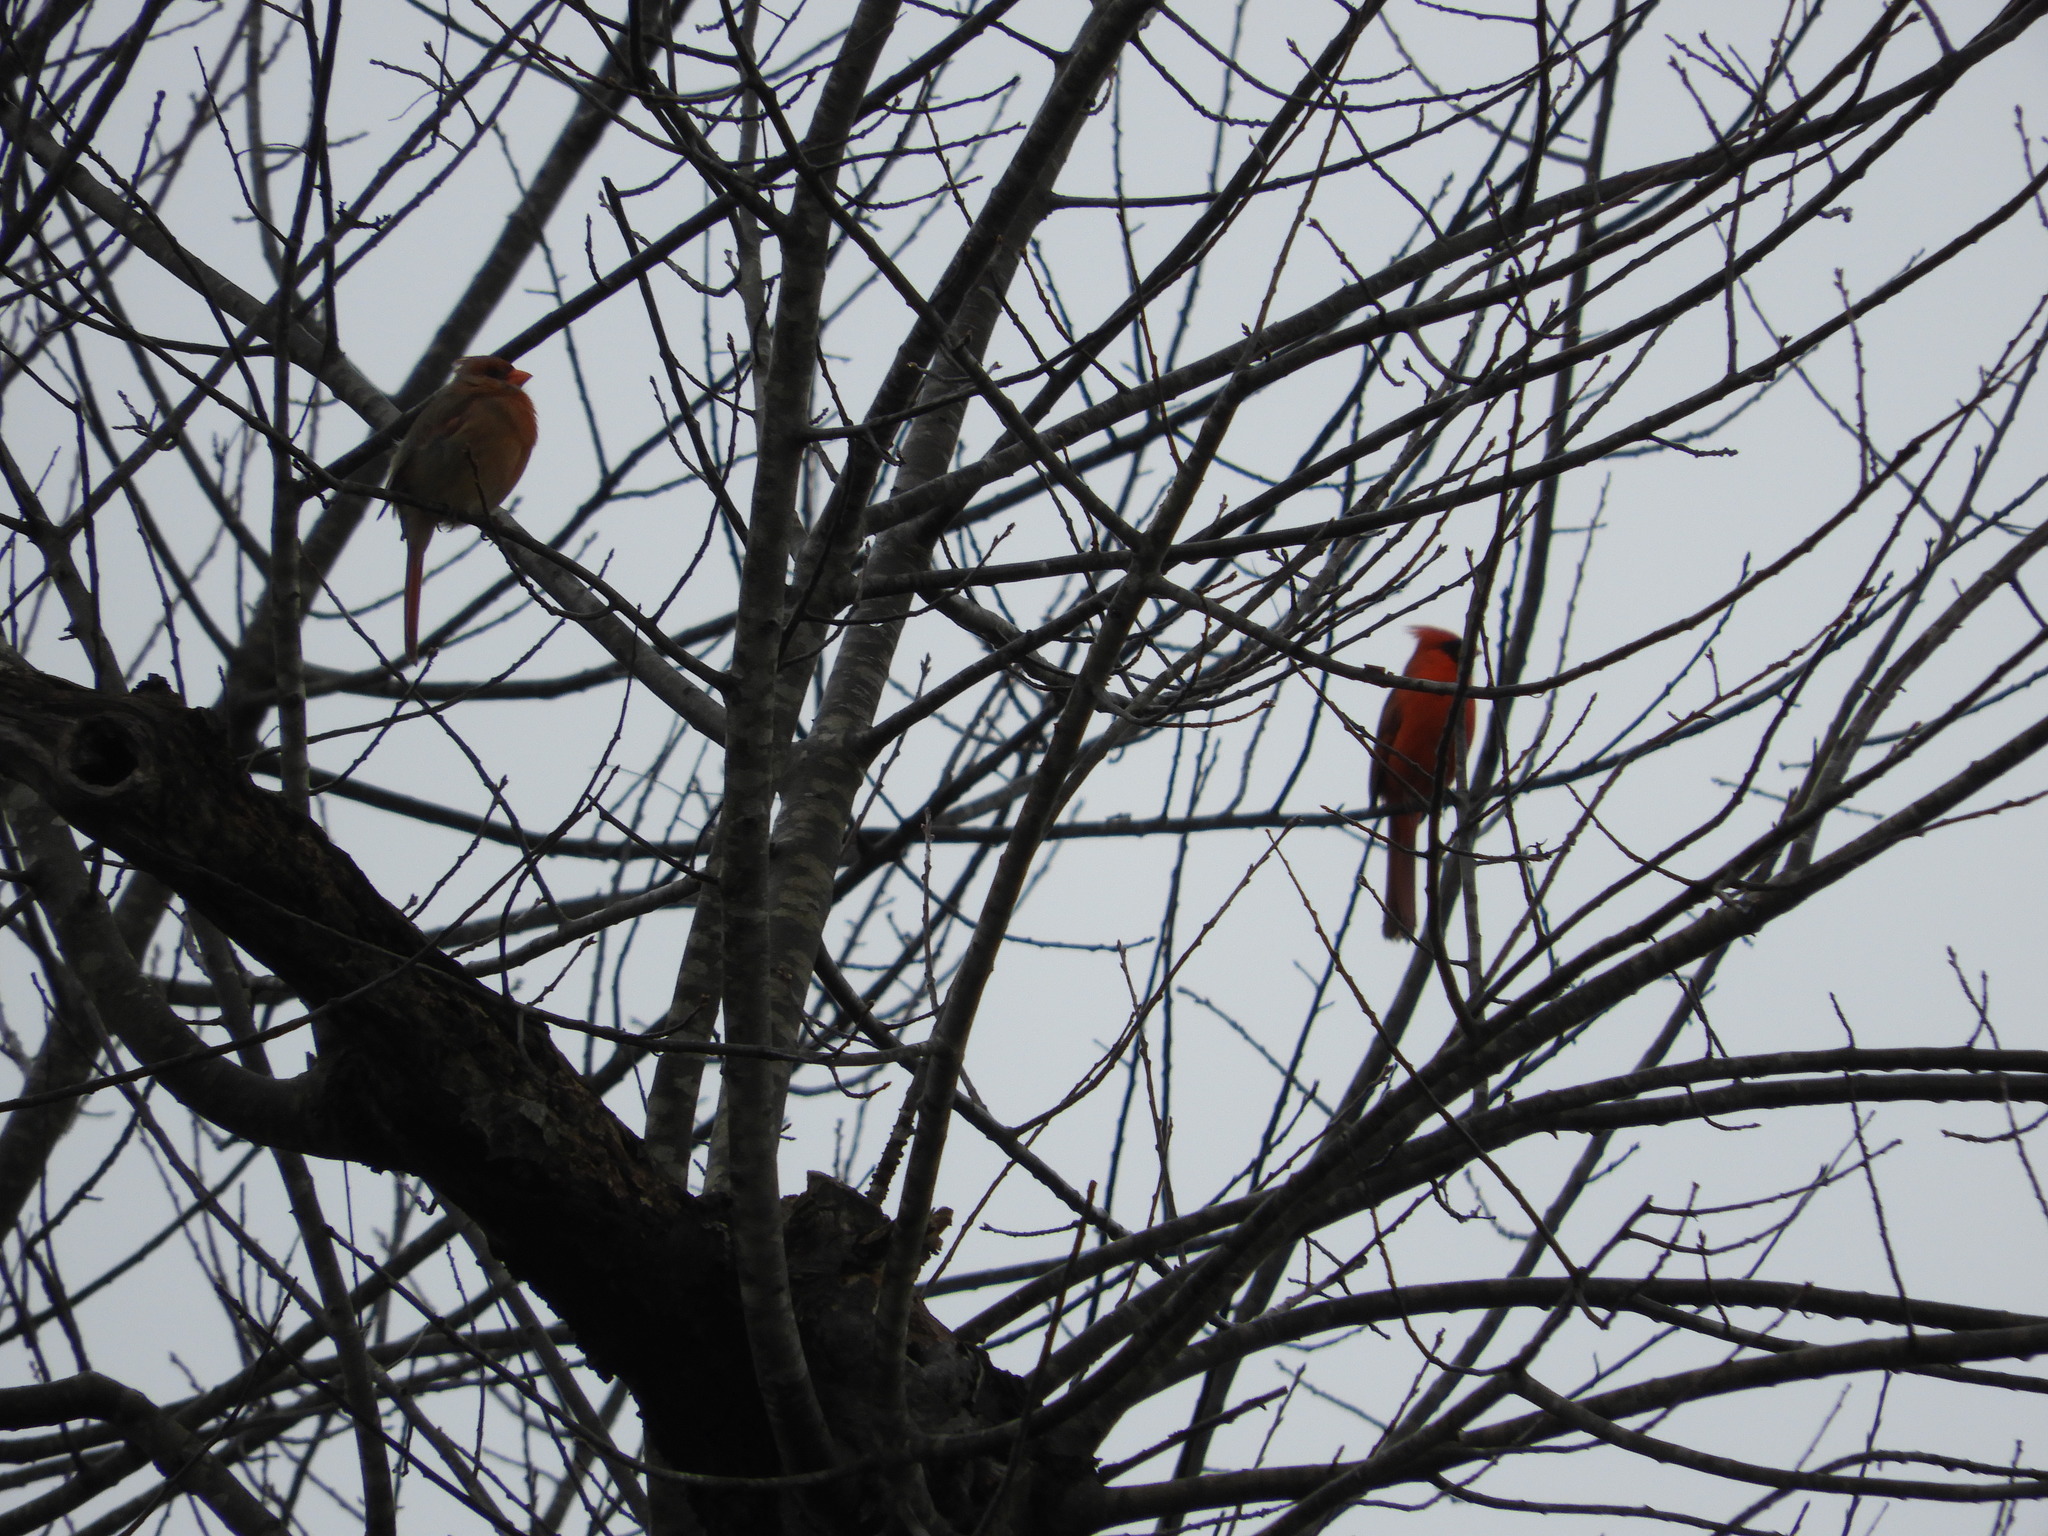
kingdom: Animalia
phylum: Chordata
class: Aves
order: Passeriformes
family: Cardinalidae
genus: Cardinalis
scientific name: Cardinalis cardinalis
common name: Northern cardinal
